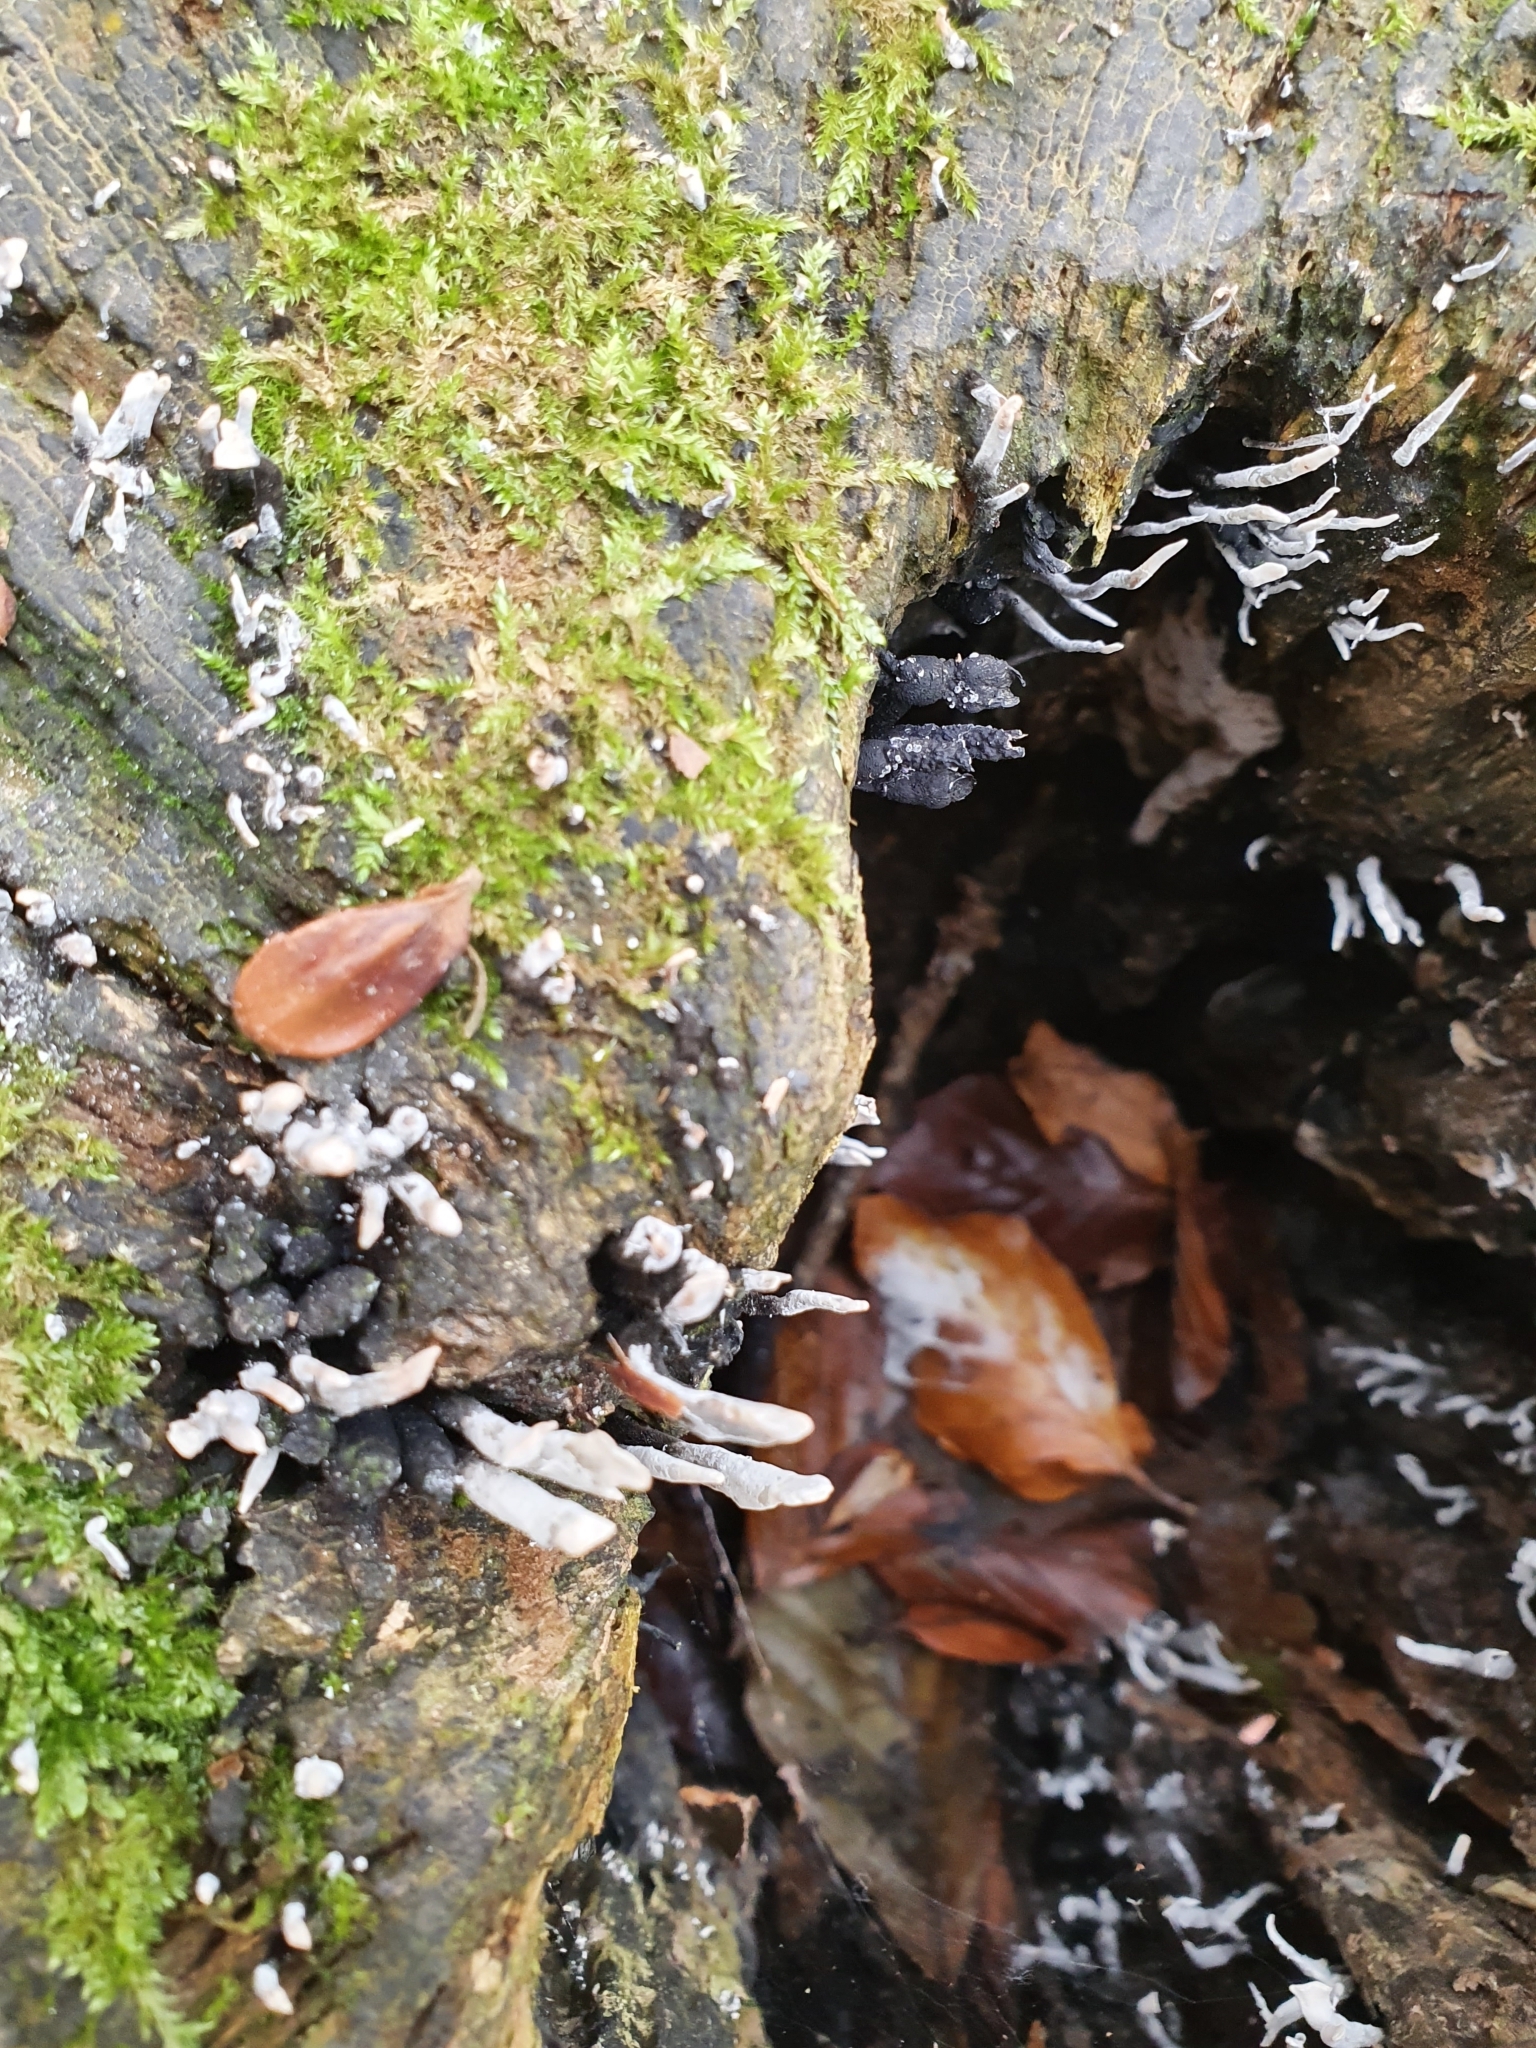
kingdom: Fungi
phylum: Ascomycota
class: Sordariomycetes
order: Xylariales
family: Xylariaceae
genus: Xylaria
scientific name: Xylaria hypoxylon
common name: Candle-snuff fungus
